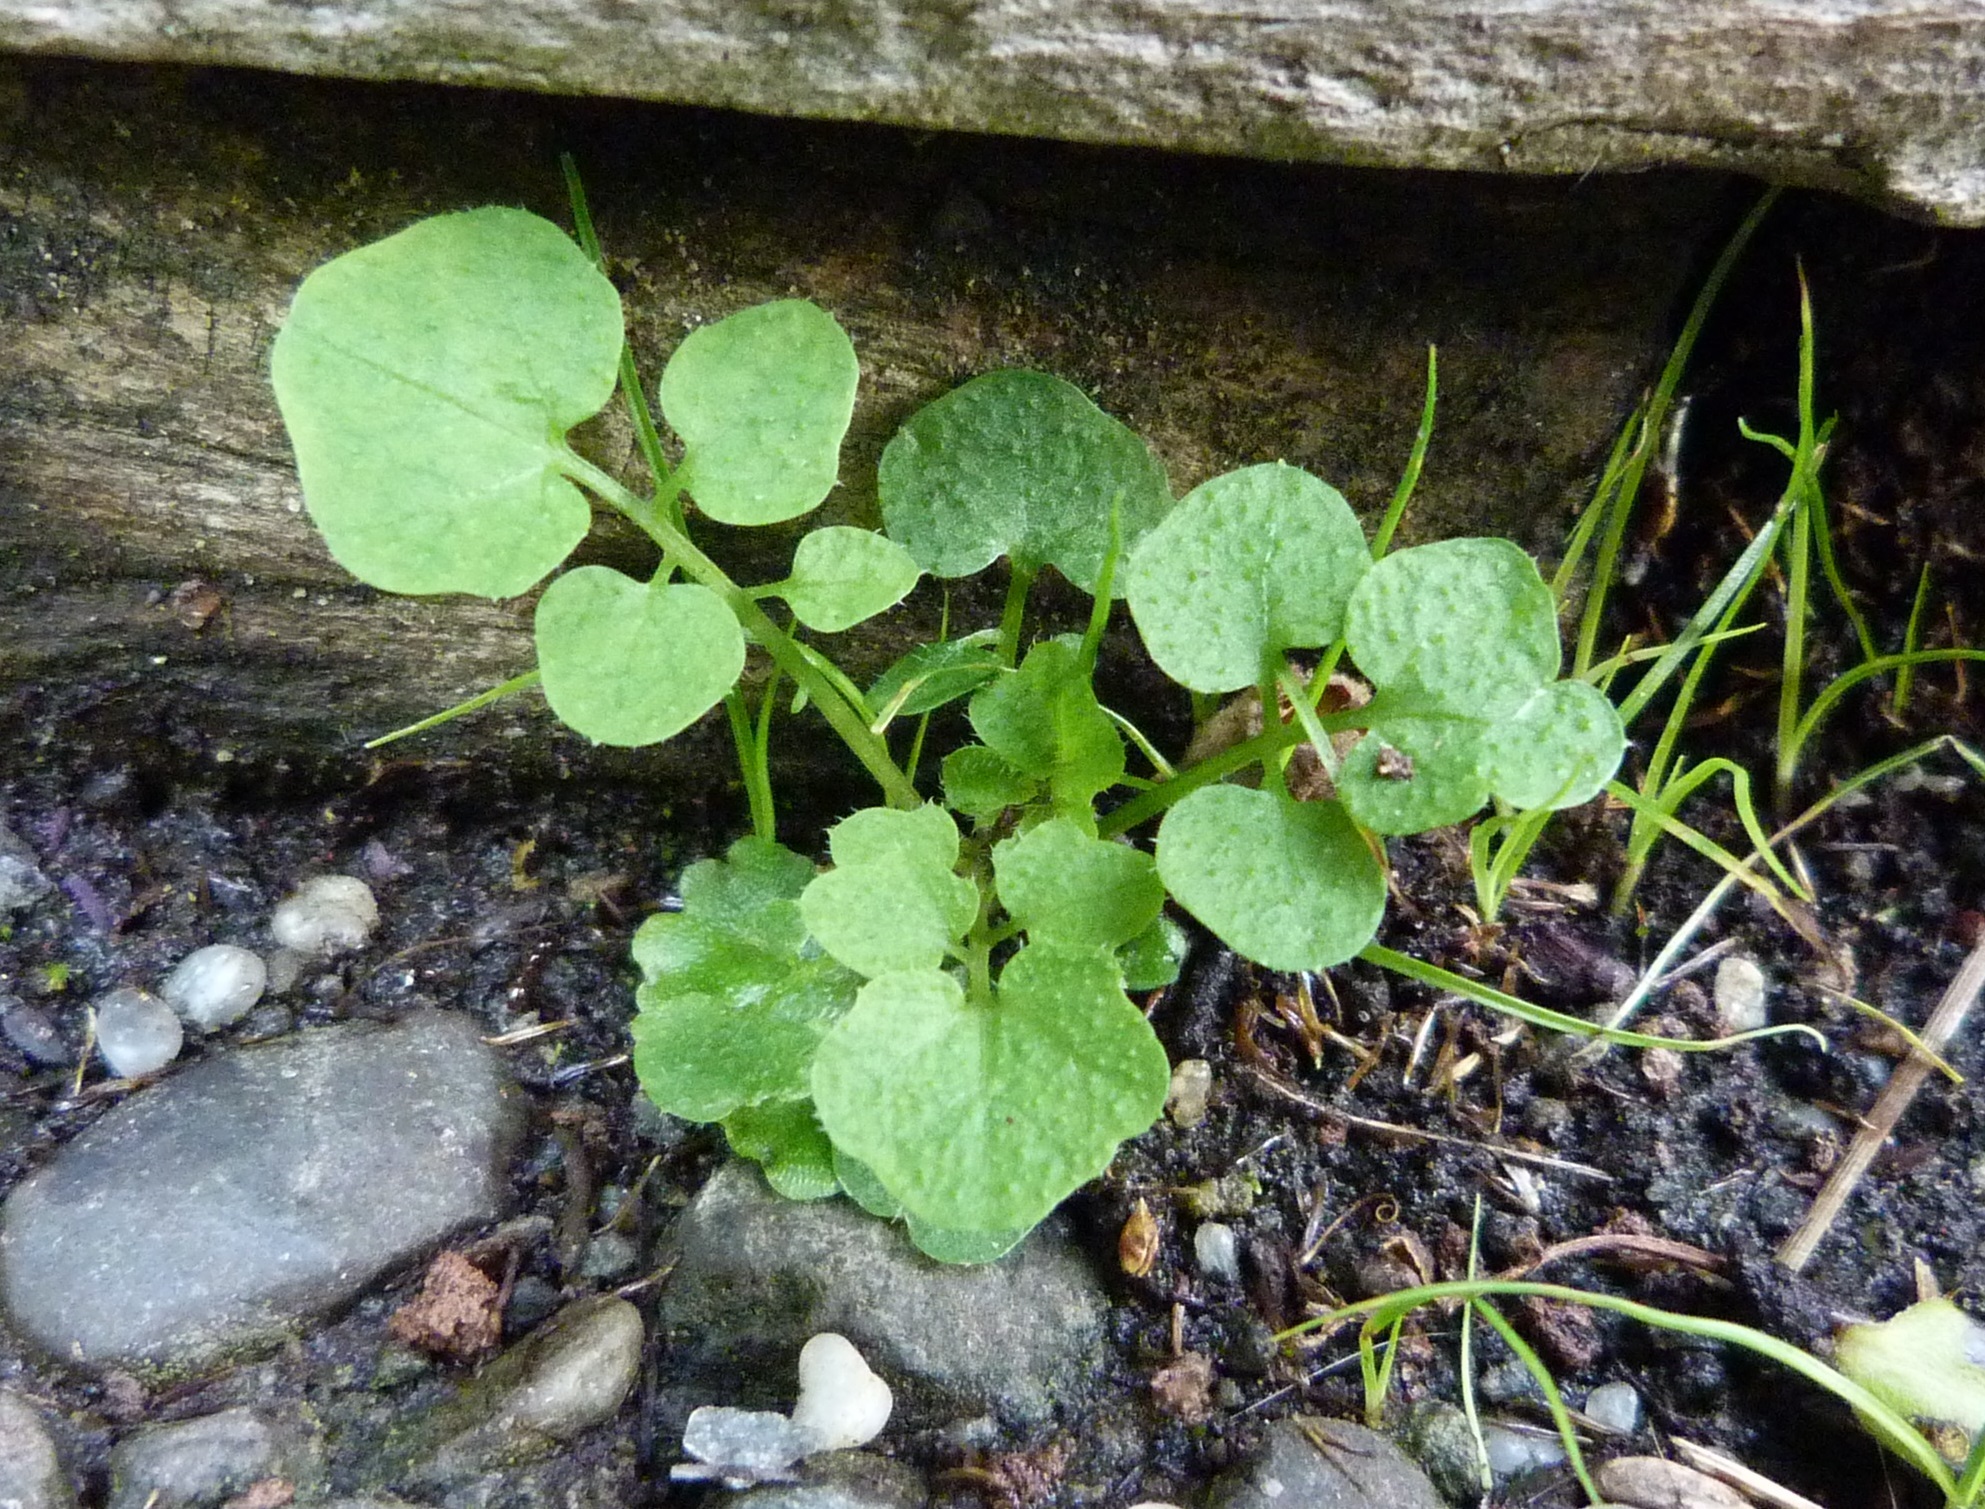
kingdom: Plantae
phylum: Tracheophyta
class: Magnoliopsida
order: Brassicales
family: Brassicaceae
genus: Cardamine
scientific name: Cardamine hirsuta
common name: Hairy bittercress
